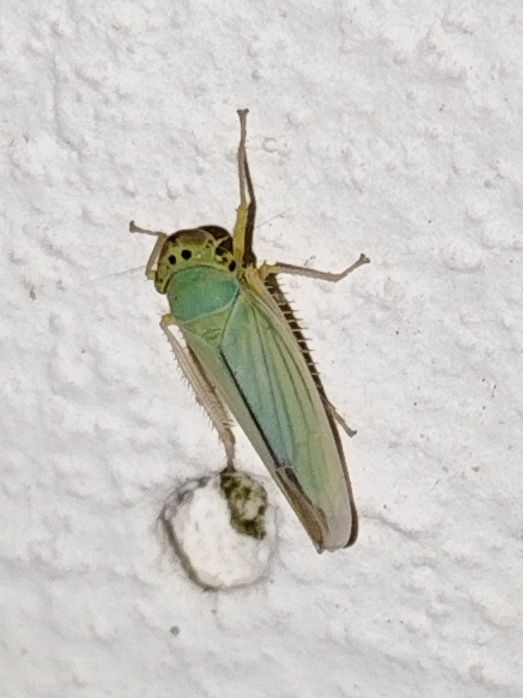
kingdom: Animalia
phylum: Arthropoda
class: Insecta
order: Hemiptera
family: Cicadellidae
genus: Cicadella
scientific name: Cicadella viridis
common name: Leafhopper
